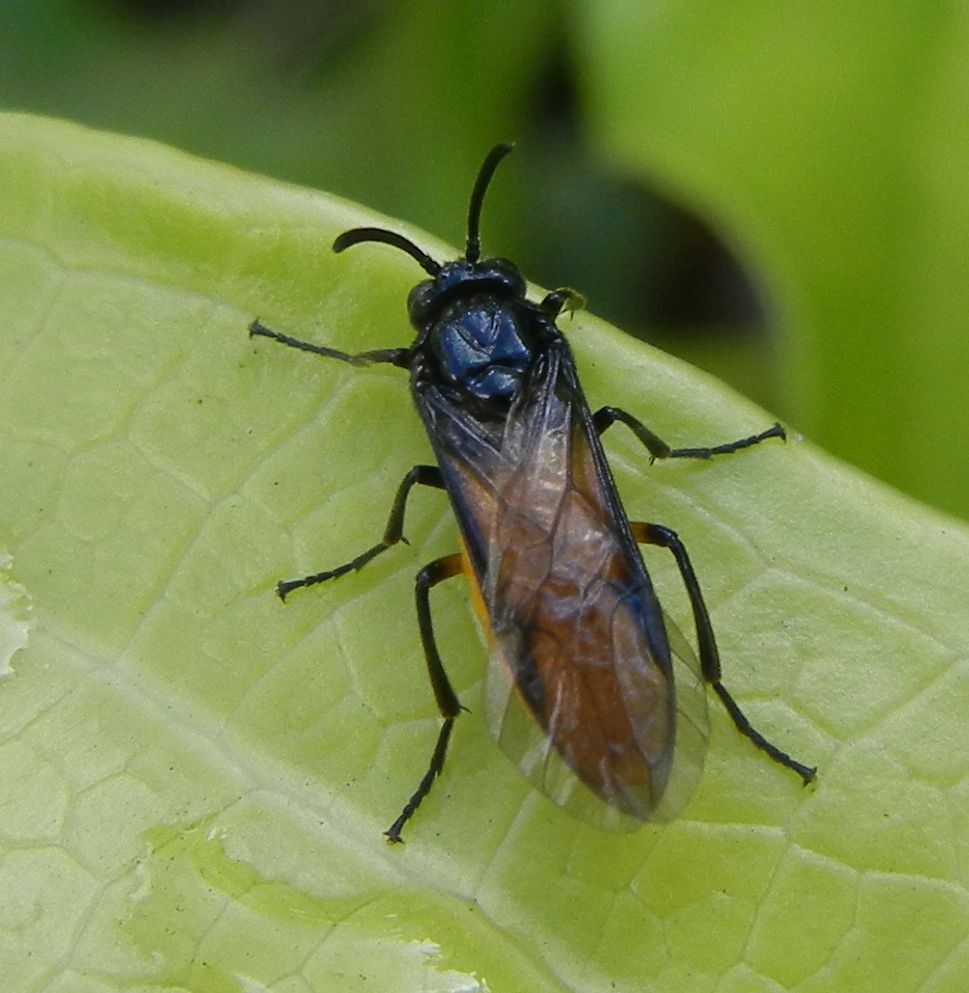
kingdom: Animalia
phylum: Arthropoda
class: Insecta
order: Hymenoptera
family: Argidae
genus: Arge
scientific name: Arge pagana
